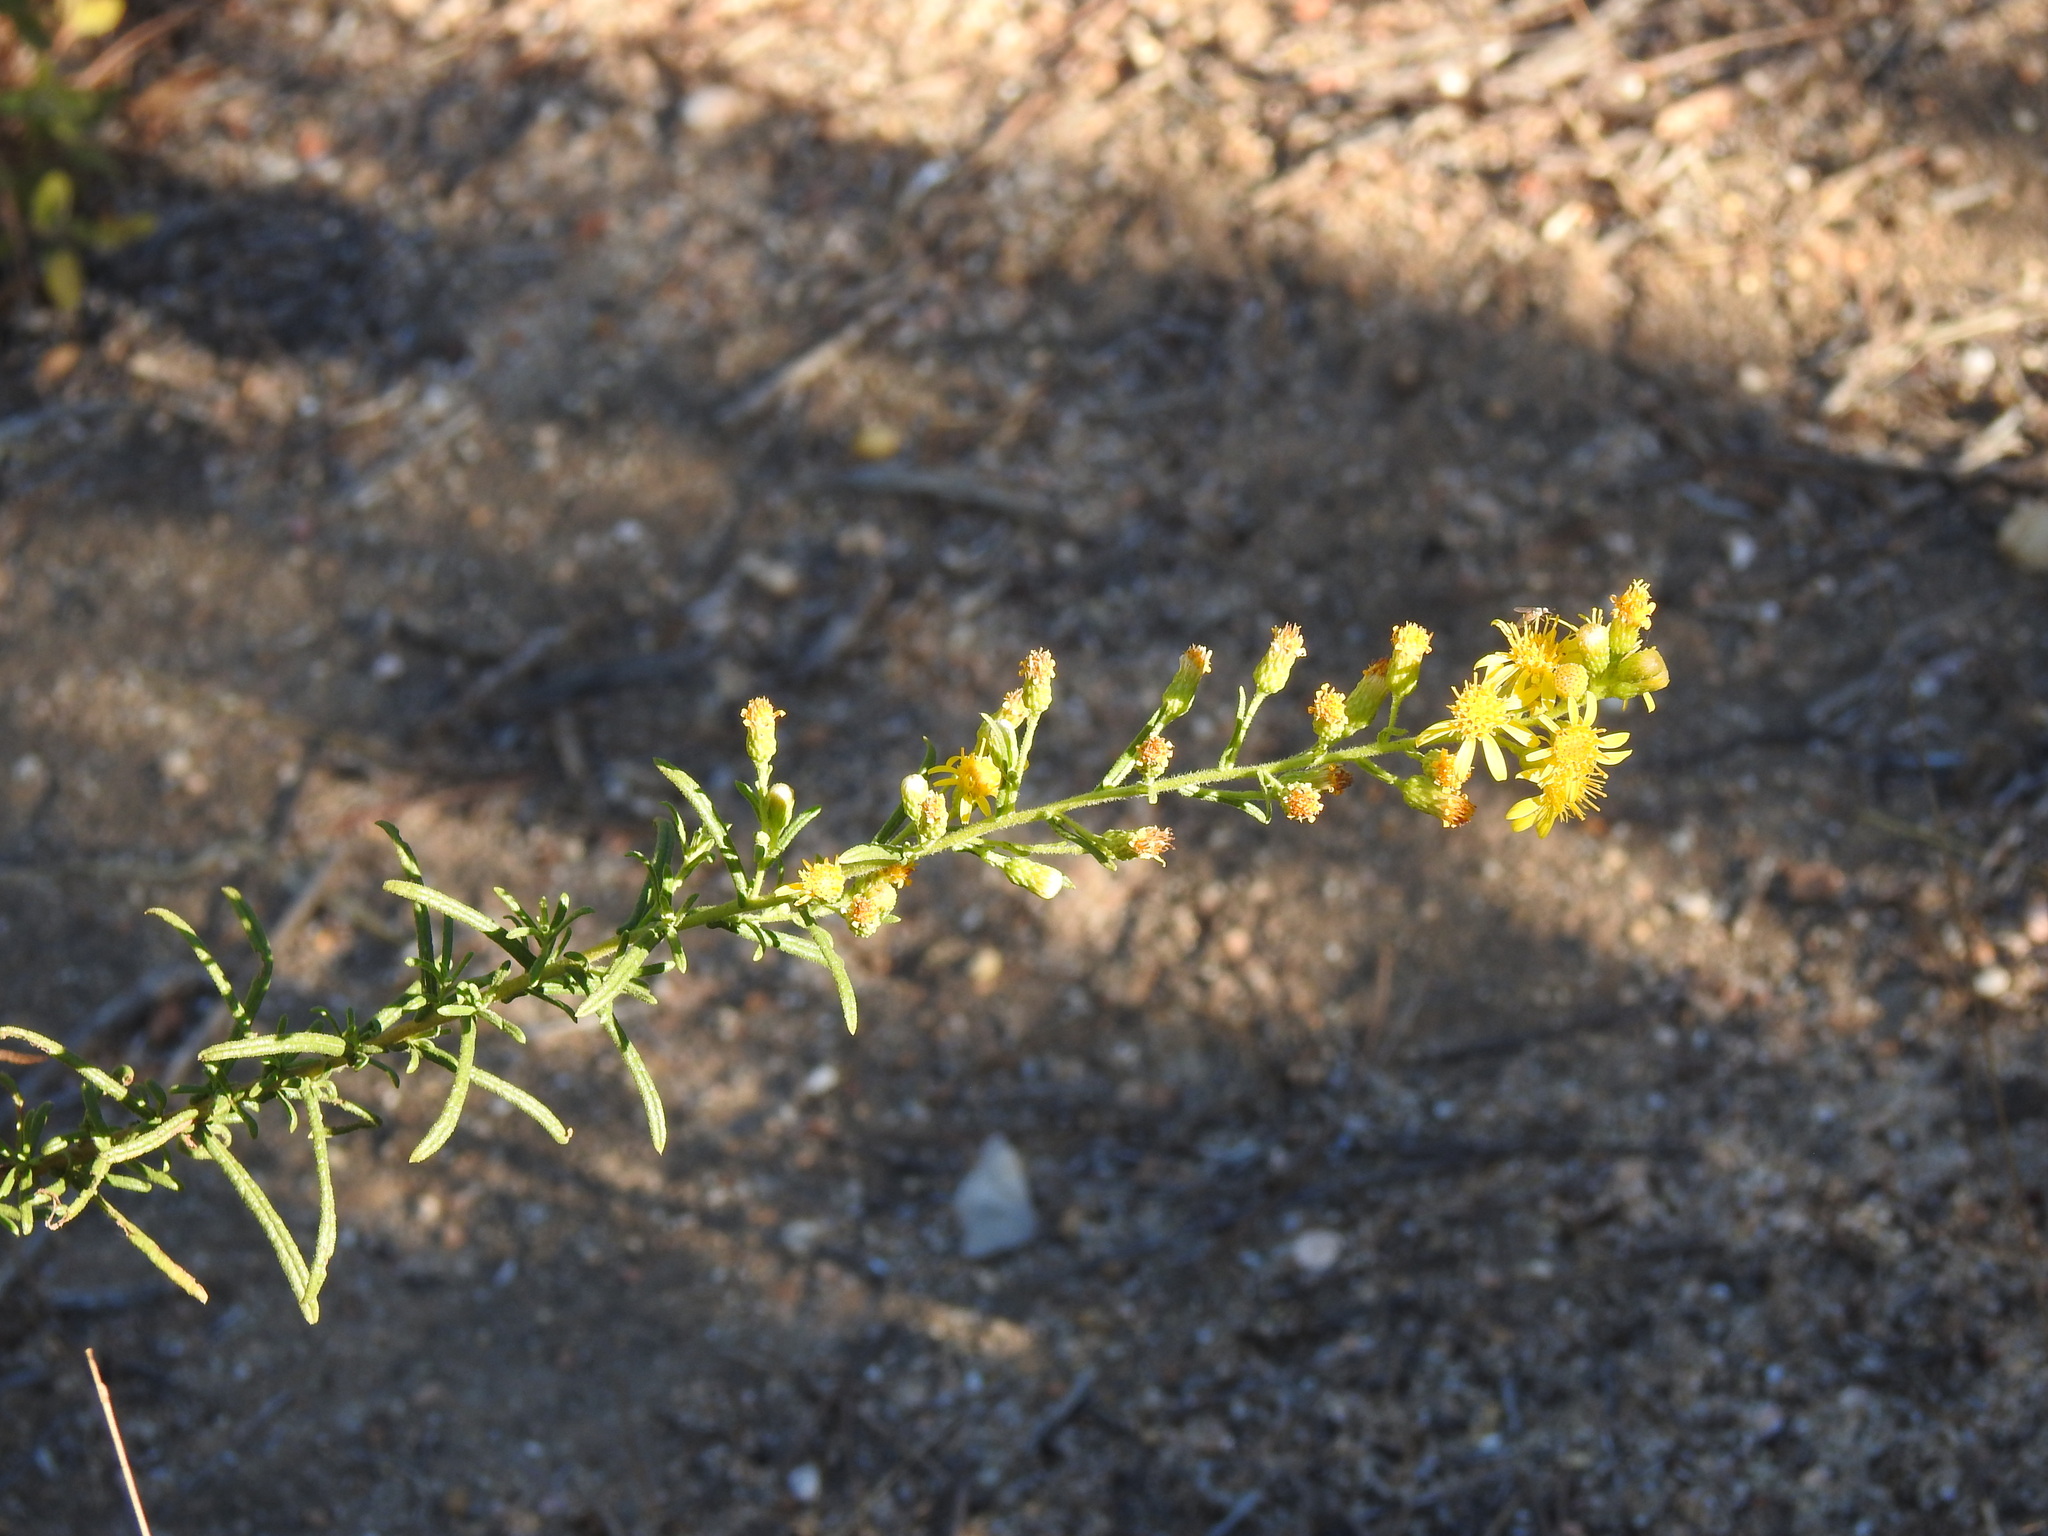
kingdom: Plantae
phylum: Tracheophyta
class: Magnoliopsida
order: Asterales
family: Asteraceae
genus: Dittrichia
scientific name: Dittrichia viscosa
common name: Woody fleabane
